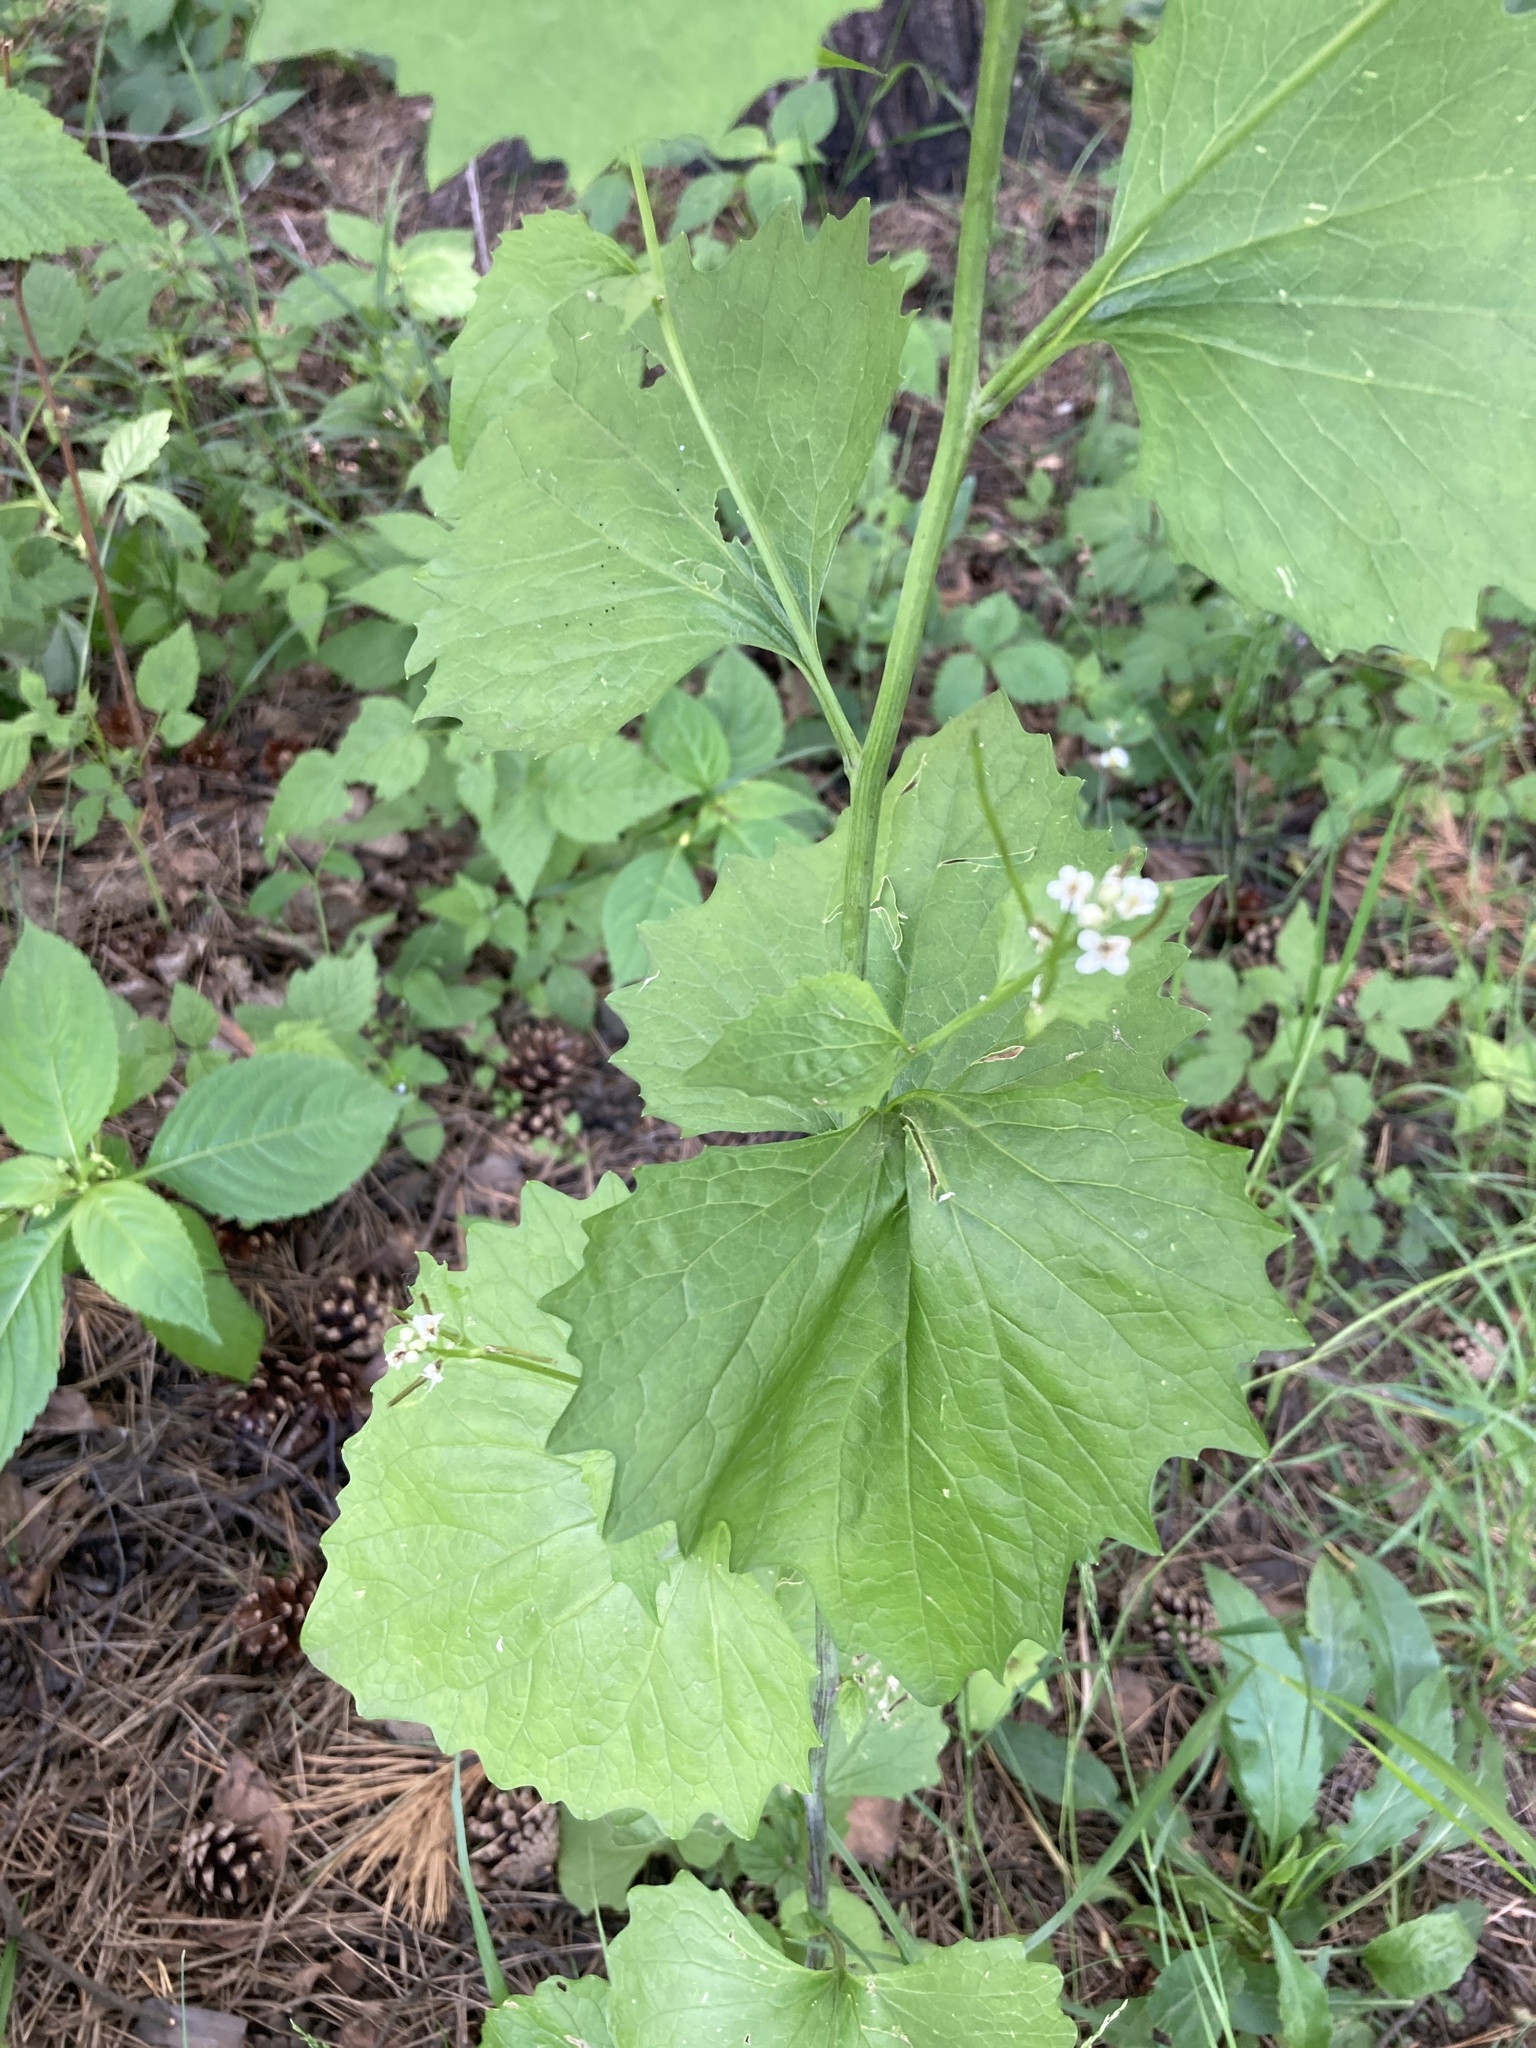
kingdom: Plantae
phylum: Tracheophyta
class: Magnoliopsida
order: Brassicales
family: Brassicaceae
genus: Alliaria
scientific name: Alliaria petiolata
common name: Garlic mustard
